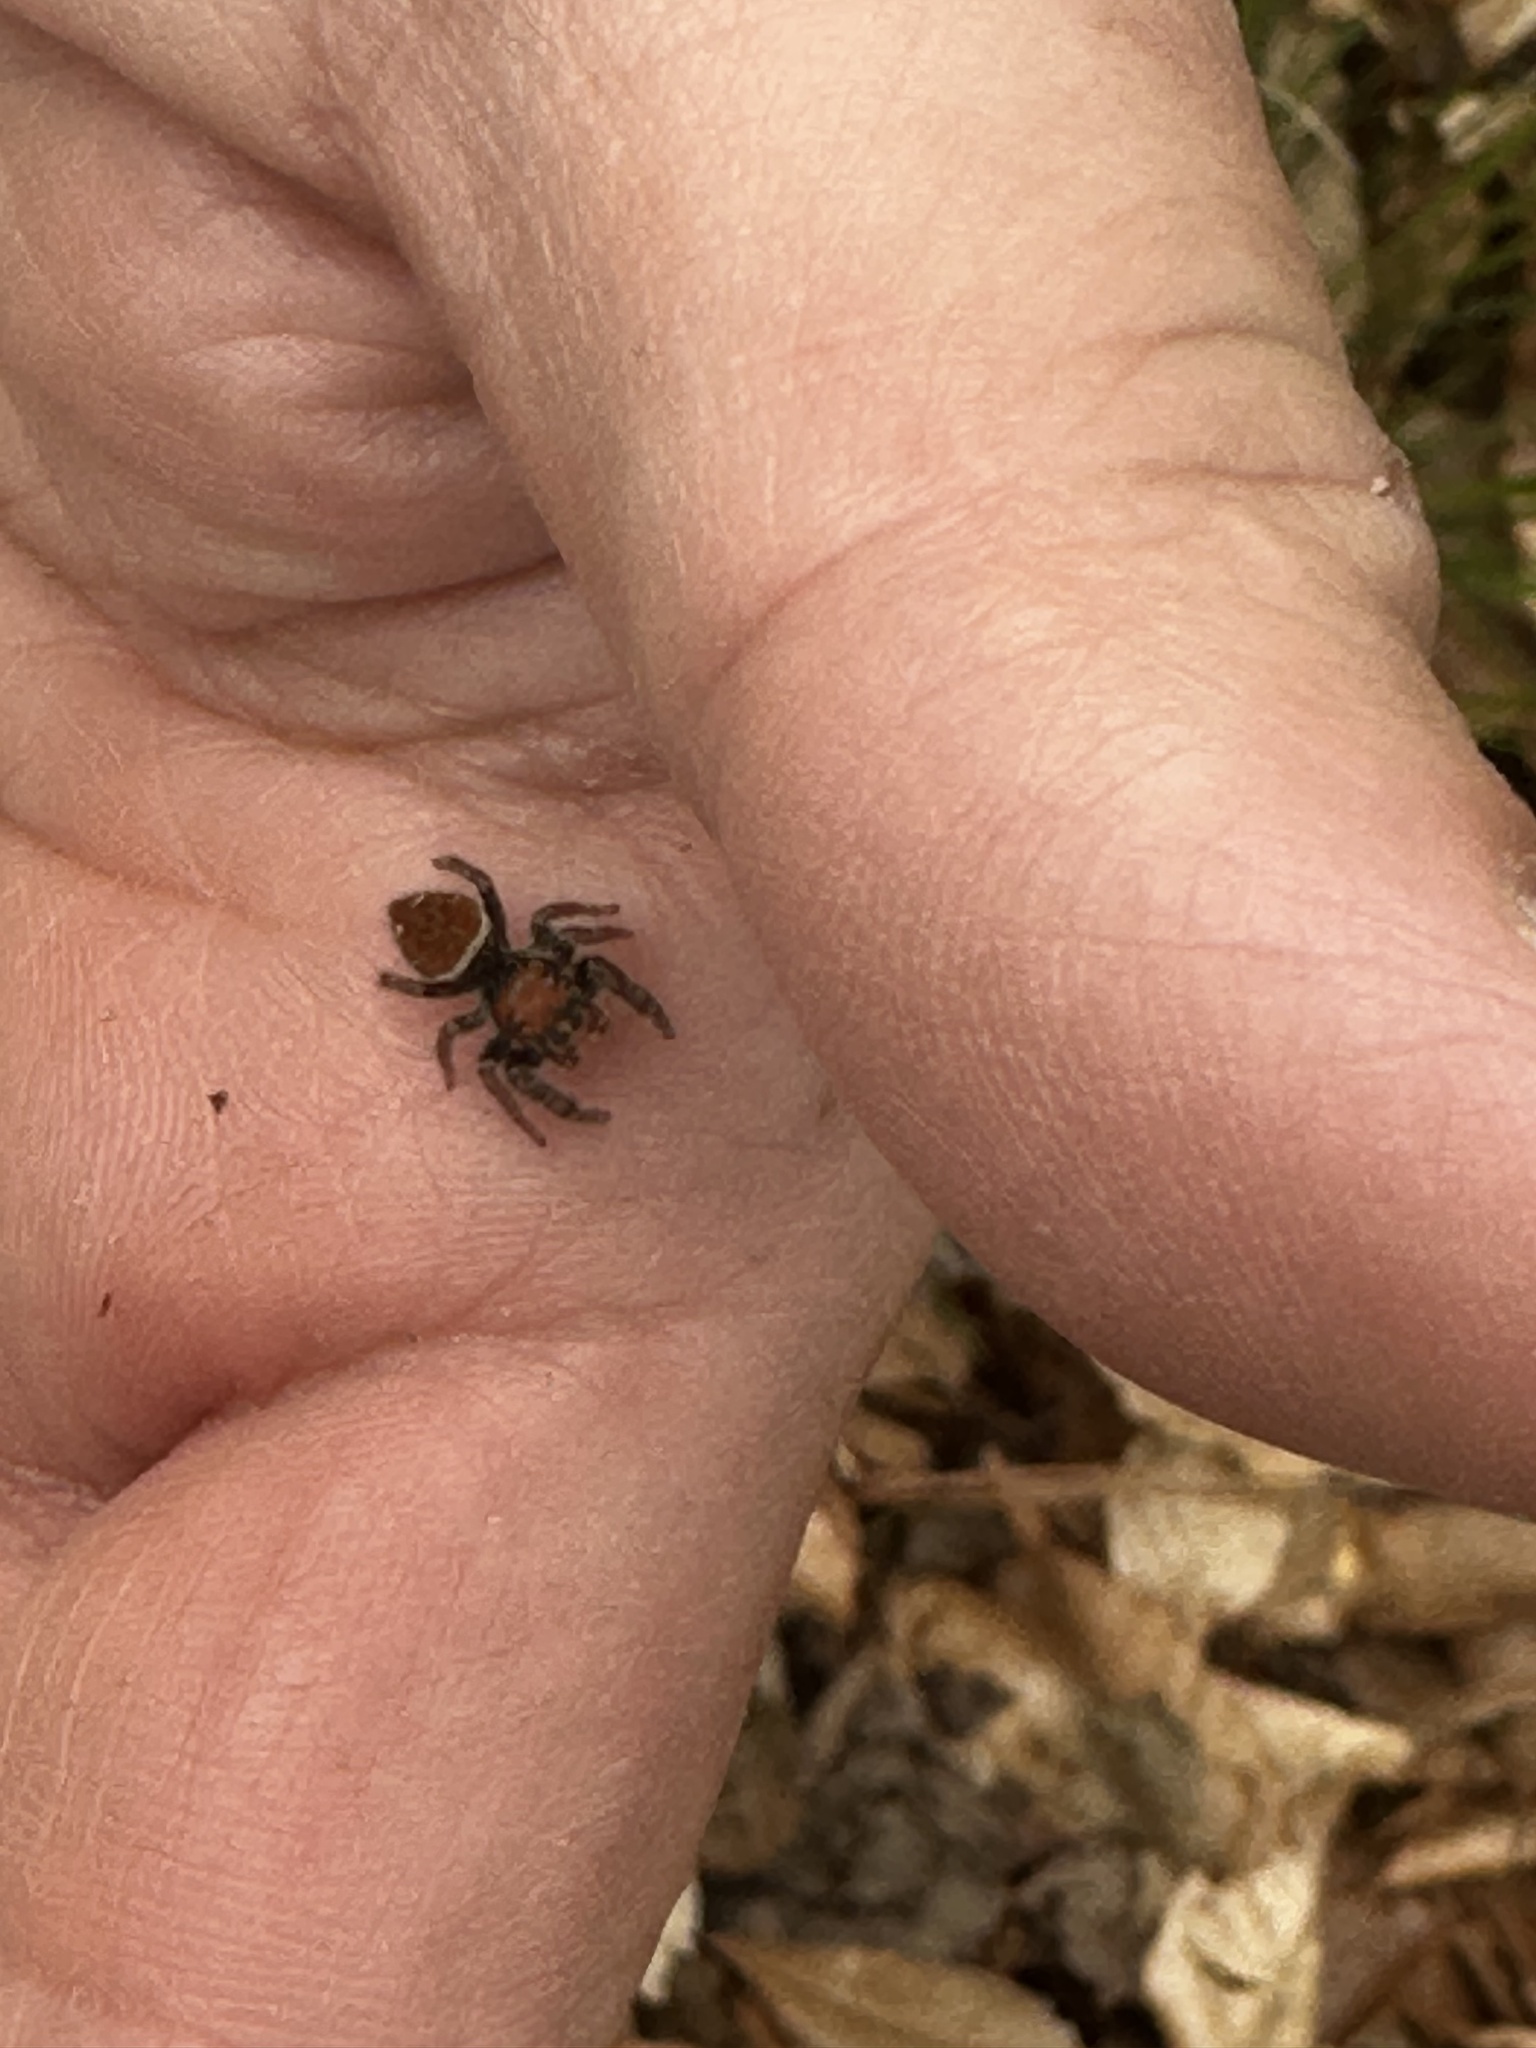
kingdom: Animalia
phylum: Arthropoda
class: Arachnida
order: Araneae
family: Salticidae
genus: Phidippus
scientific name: Phidippus whitmani
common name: Whitman's jumping spider
